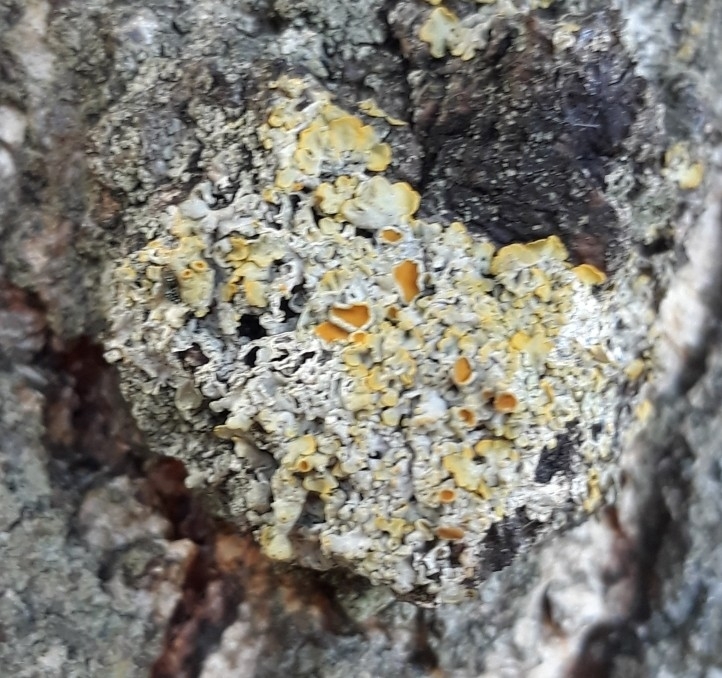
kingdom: Fungi
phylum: Ascomycota
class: Lecanoromycetes
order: Teloschistales
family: Teloschistaceae
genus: Xanthoria
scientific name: Xanthoria parietina
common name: Common orange lichen
